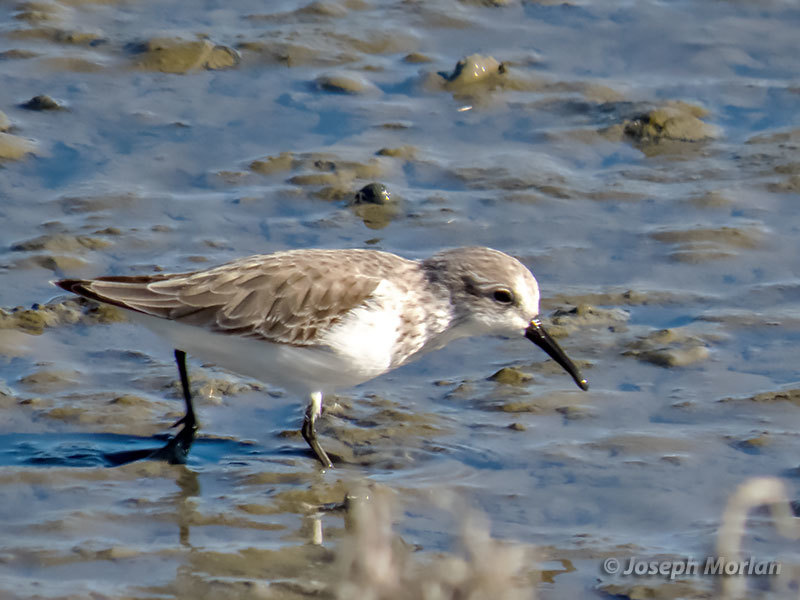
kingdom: Animalia
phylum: Chordata
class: Aves
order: Charadriiformes
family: Scolopacidae
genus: Calidris
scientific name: Calidris mauri
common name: Western sandpiper
